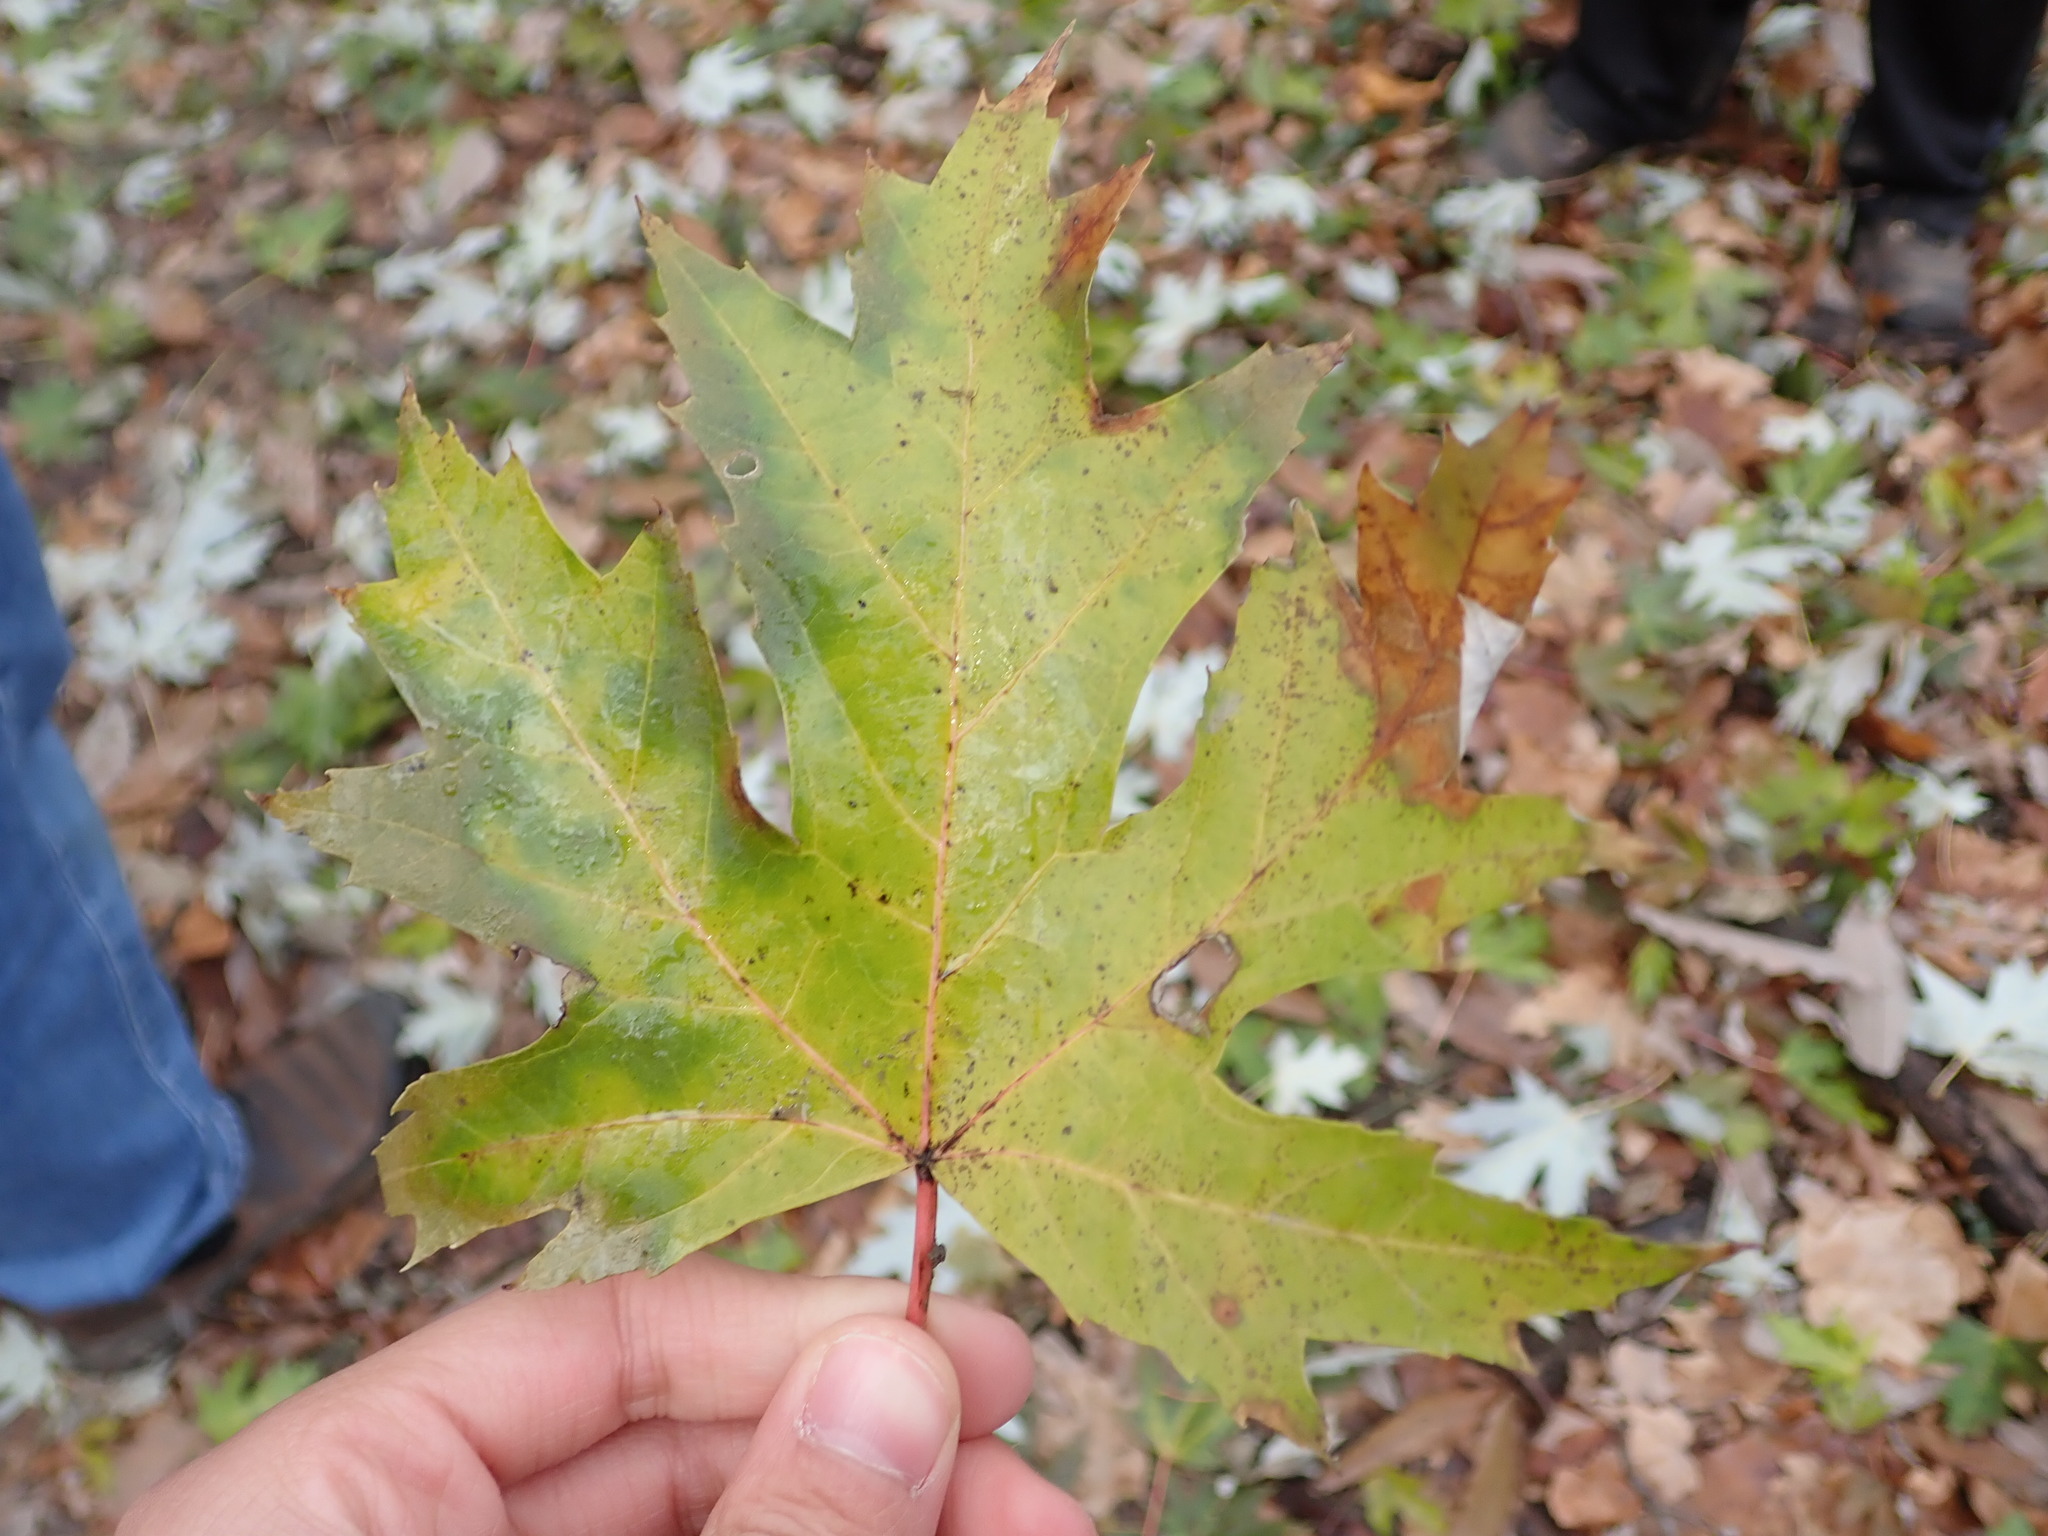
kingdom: Plantae
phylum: Tracheophyta
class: Magnoliopsida
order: Sapindales
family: Sapindaceae
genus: Acer
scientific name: Acer saccharinum
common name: Silver maple
